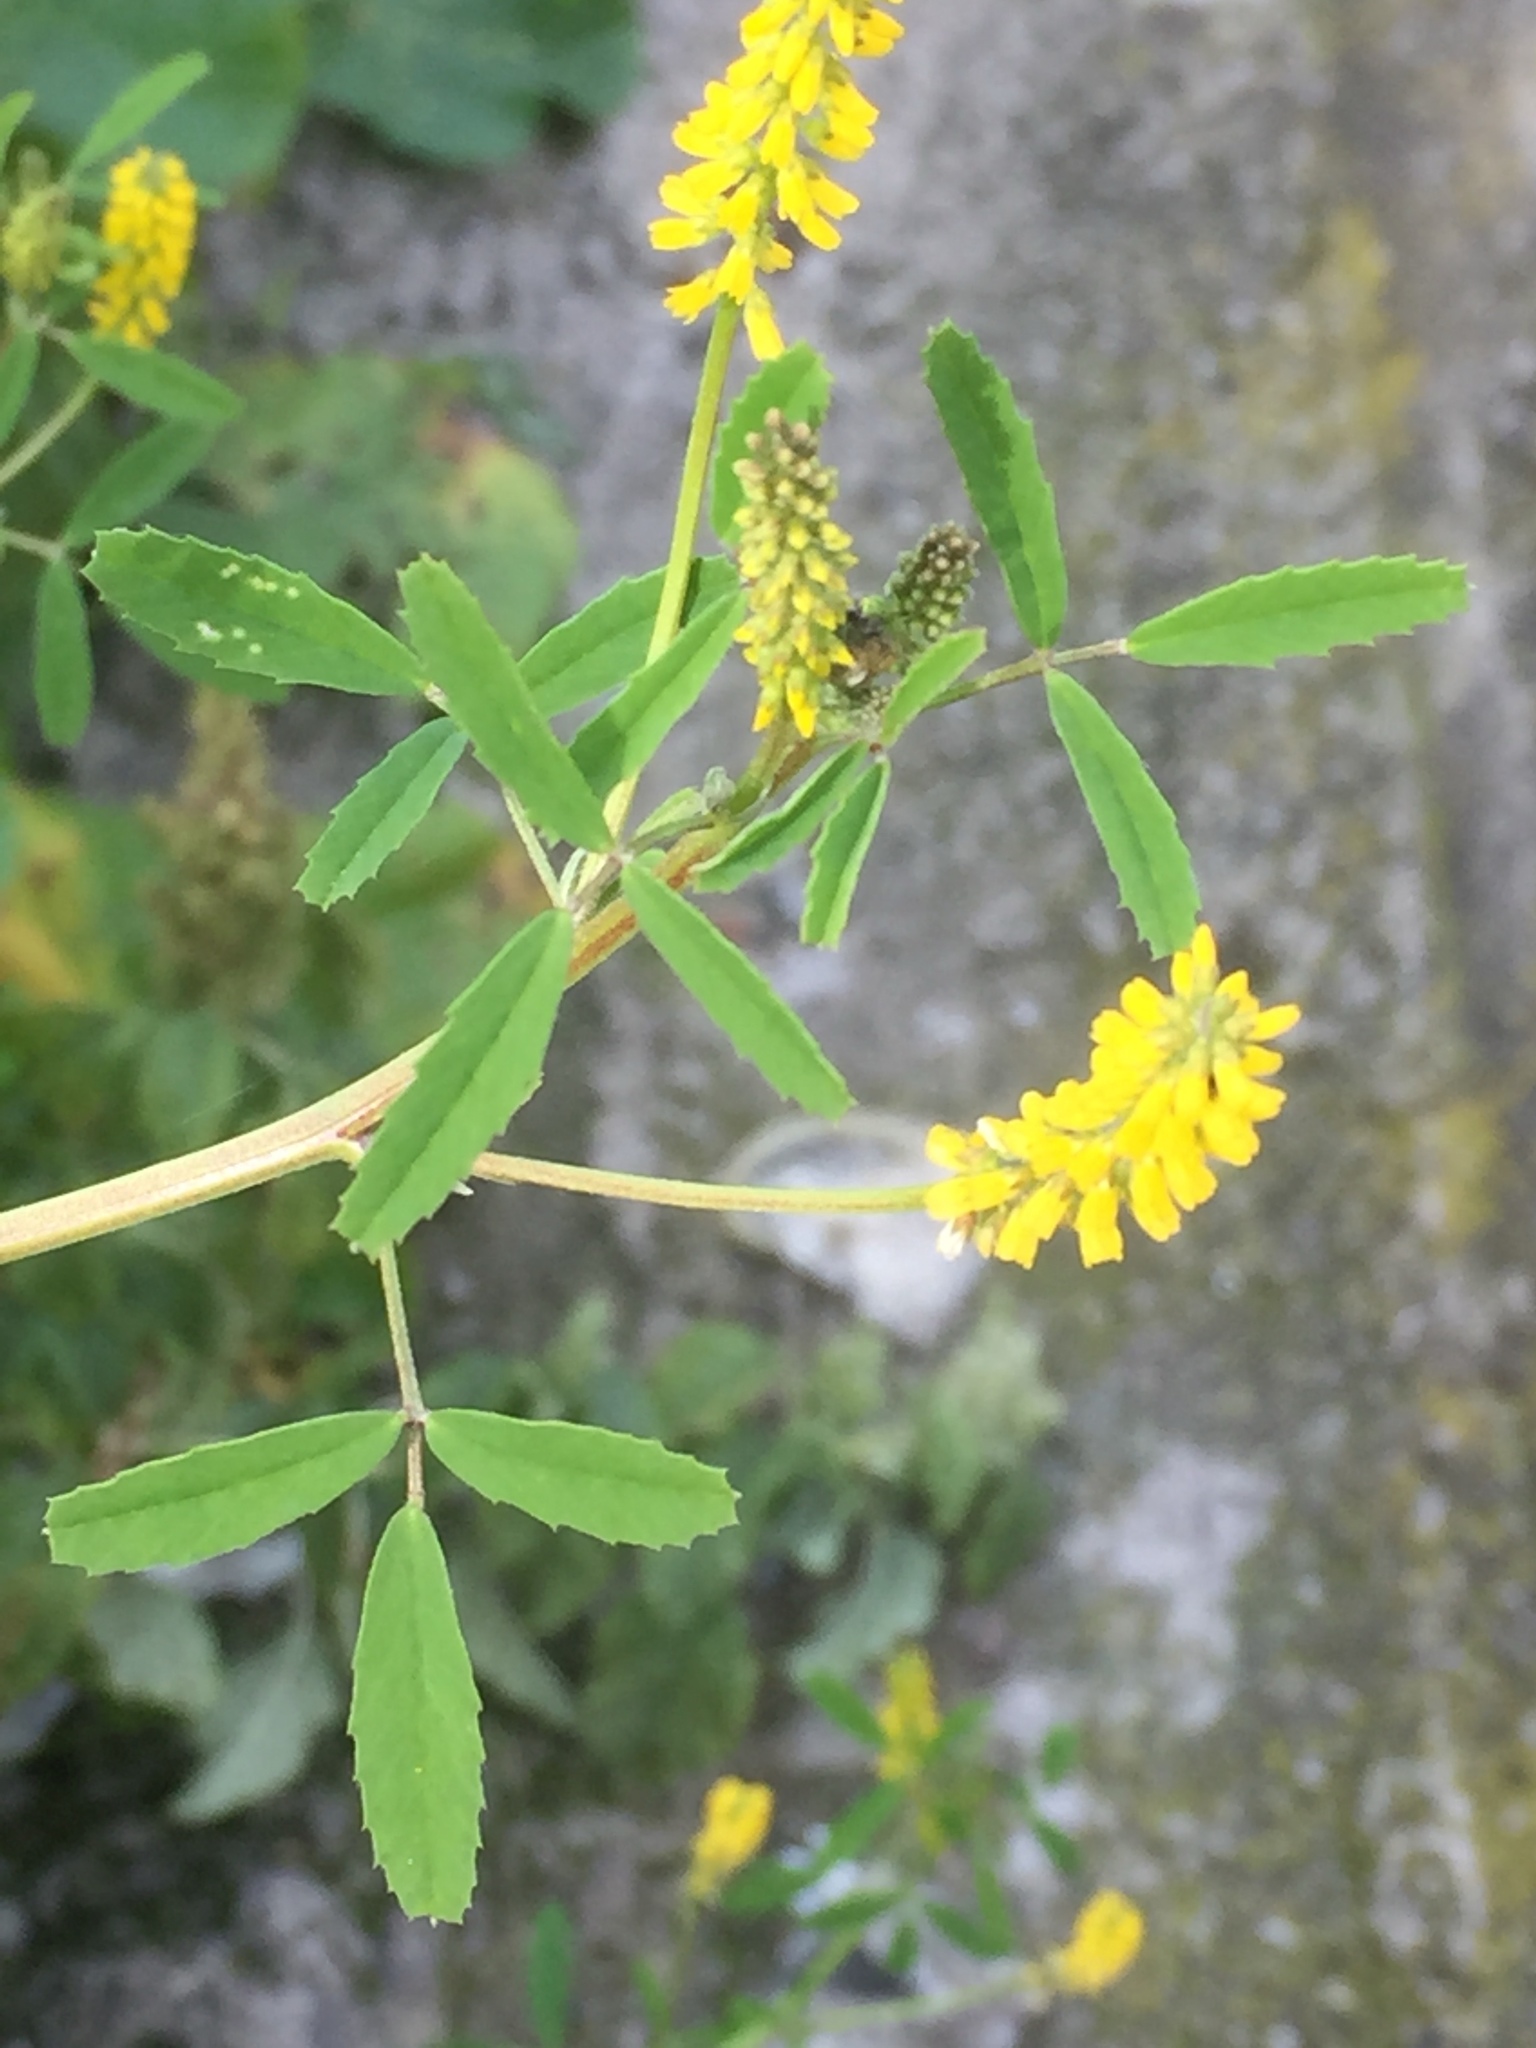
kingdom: Plantae
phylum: Tracheophyta
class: Magnoliopsida
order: Fabales
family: Fabaceae
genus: Melilotus
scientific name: Melilotus indicus
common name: Small melilot
